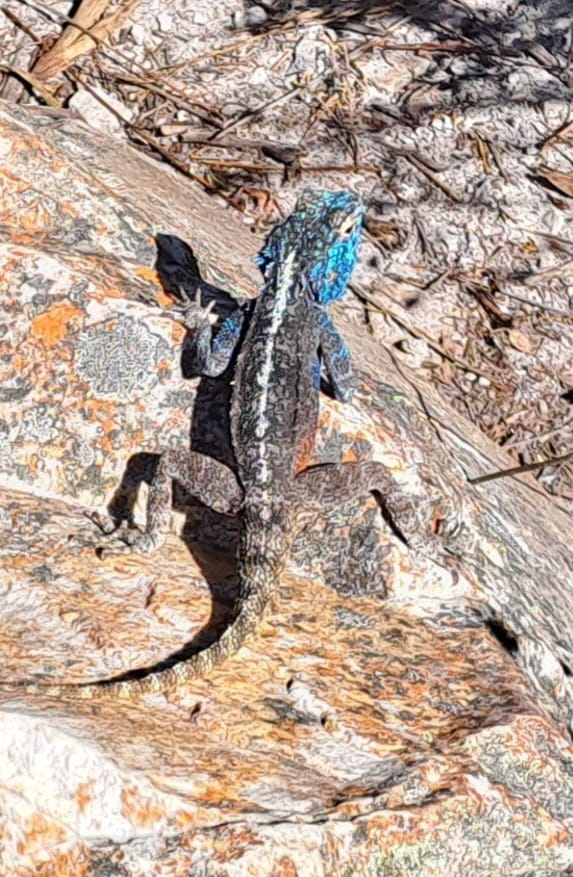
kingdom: Animalia
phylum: Chordata
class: Squamata
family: Agamidae
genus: Agama
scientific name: Agama atra
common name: Southern african rock agama
